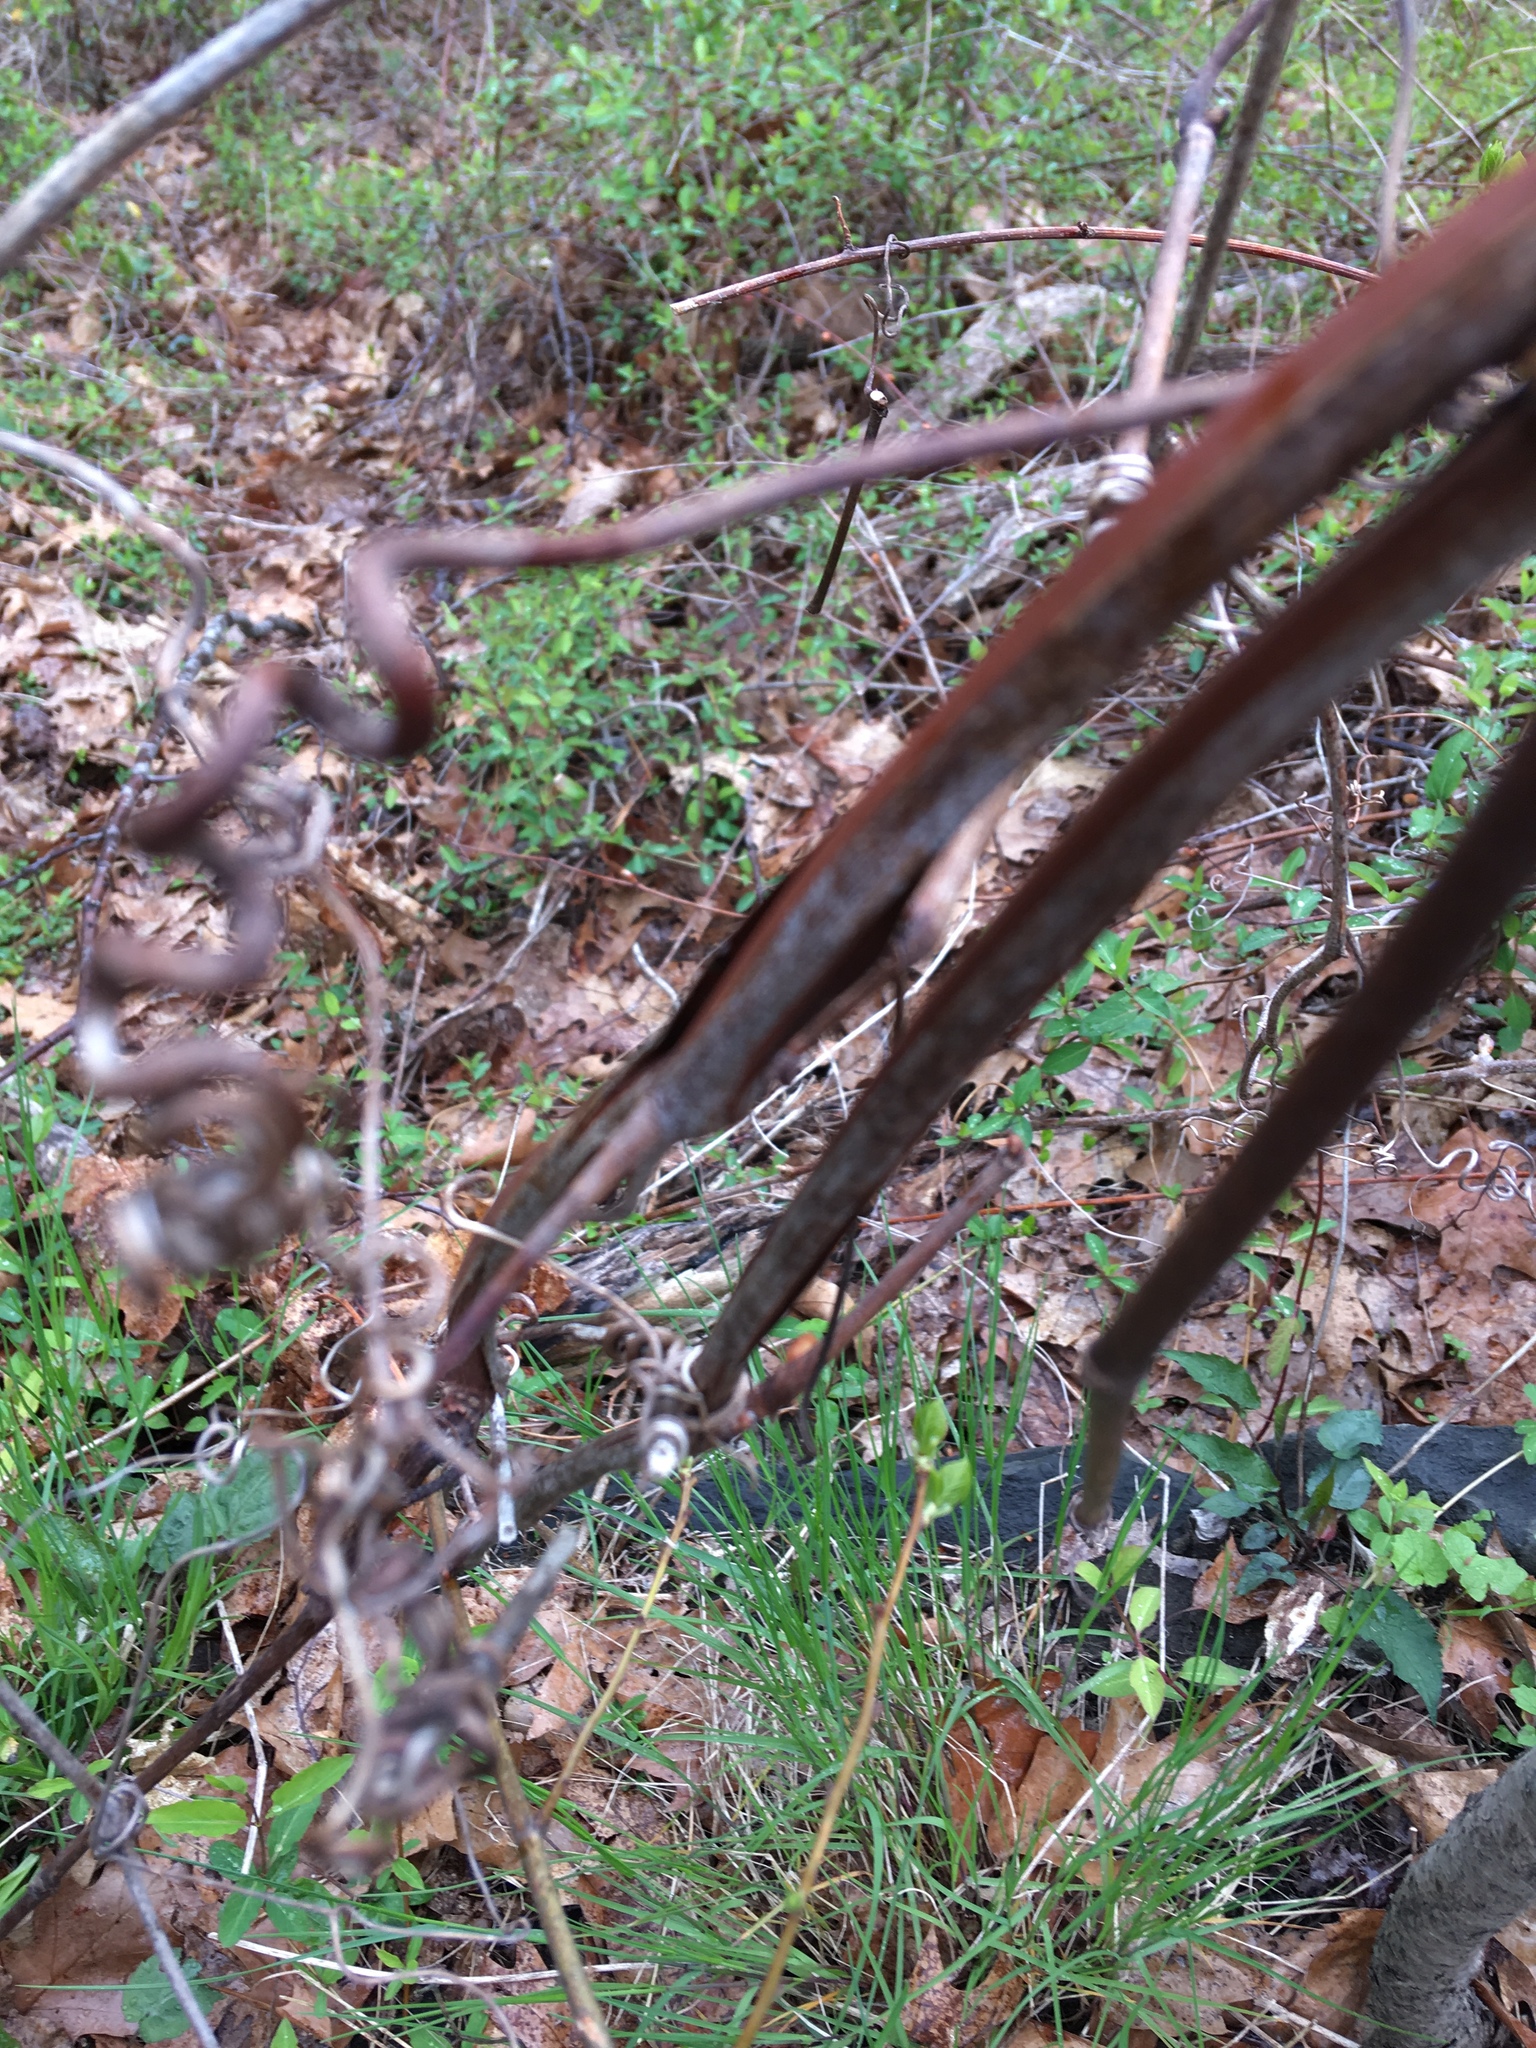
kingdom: Plantae
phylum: Tracheophyta
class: Magnoliopsida
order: Vitales
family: Vitaceae
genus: Vitis
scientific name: Vitis
